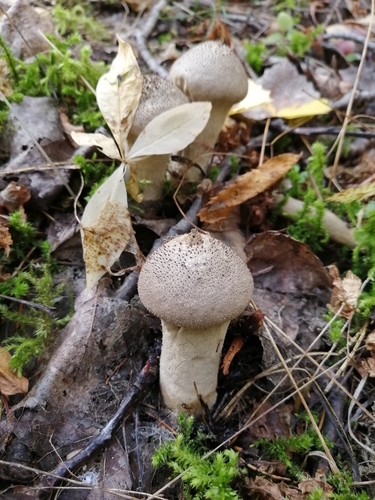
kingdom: Fungi
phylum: Basidiomycota
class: Agaricomycetes
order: Agaricales
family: Lycoperdaceae
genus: Lycoperdon
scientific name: Lycoperdon perlatum
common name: Common puffball
